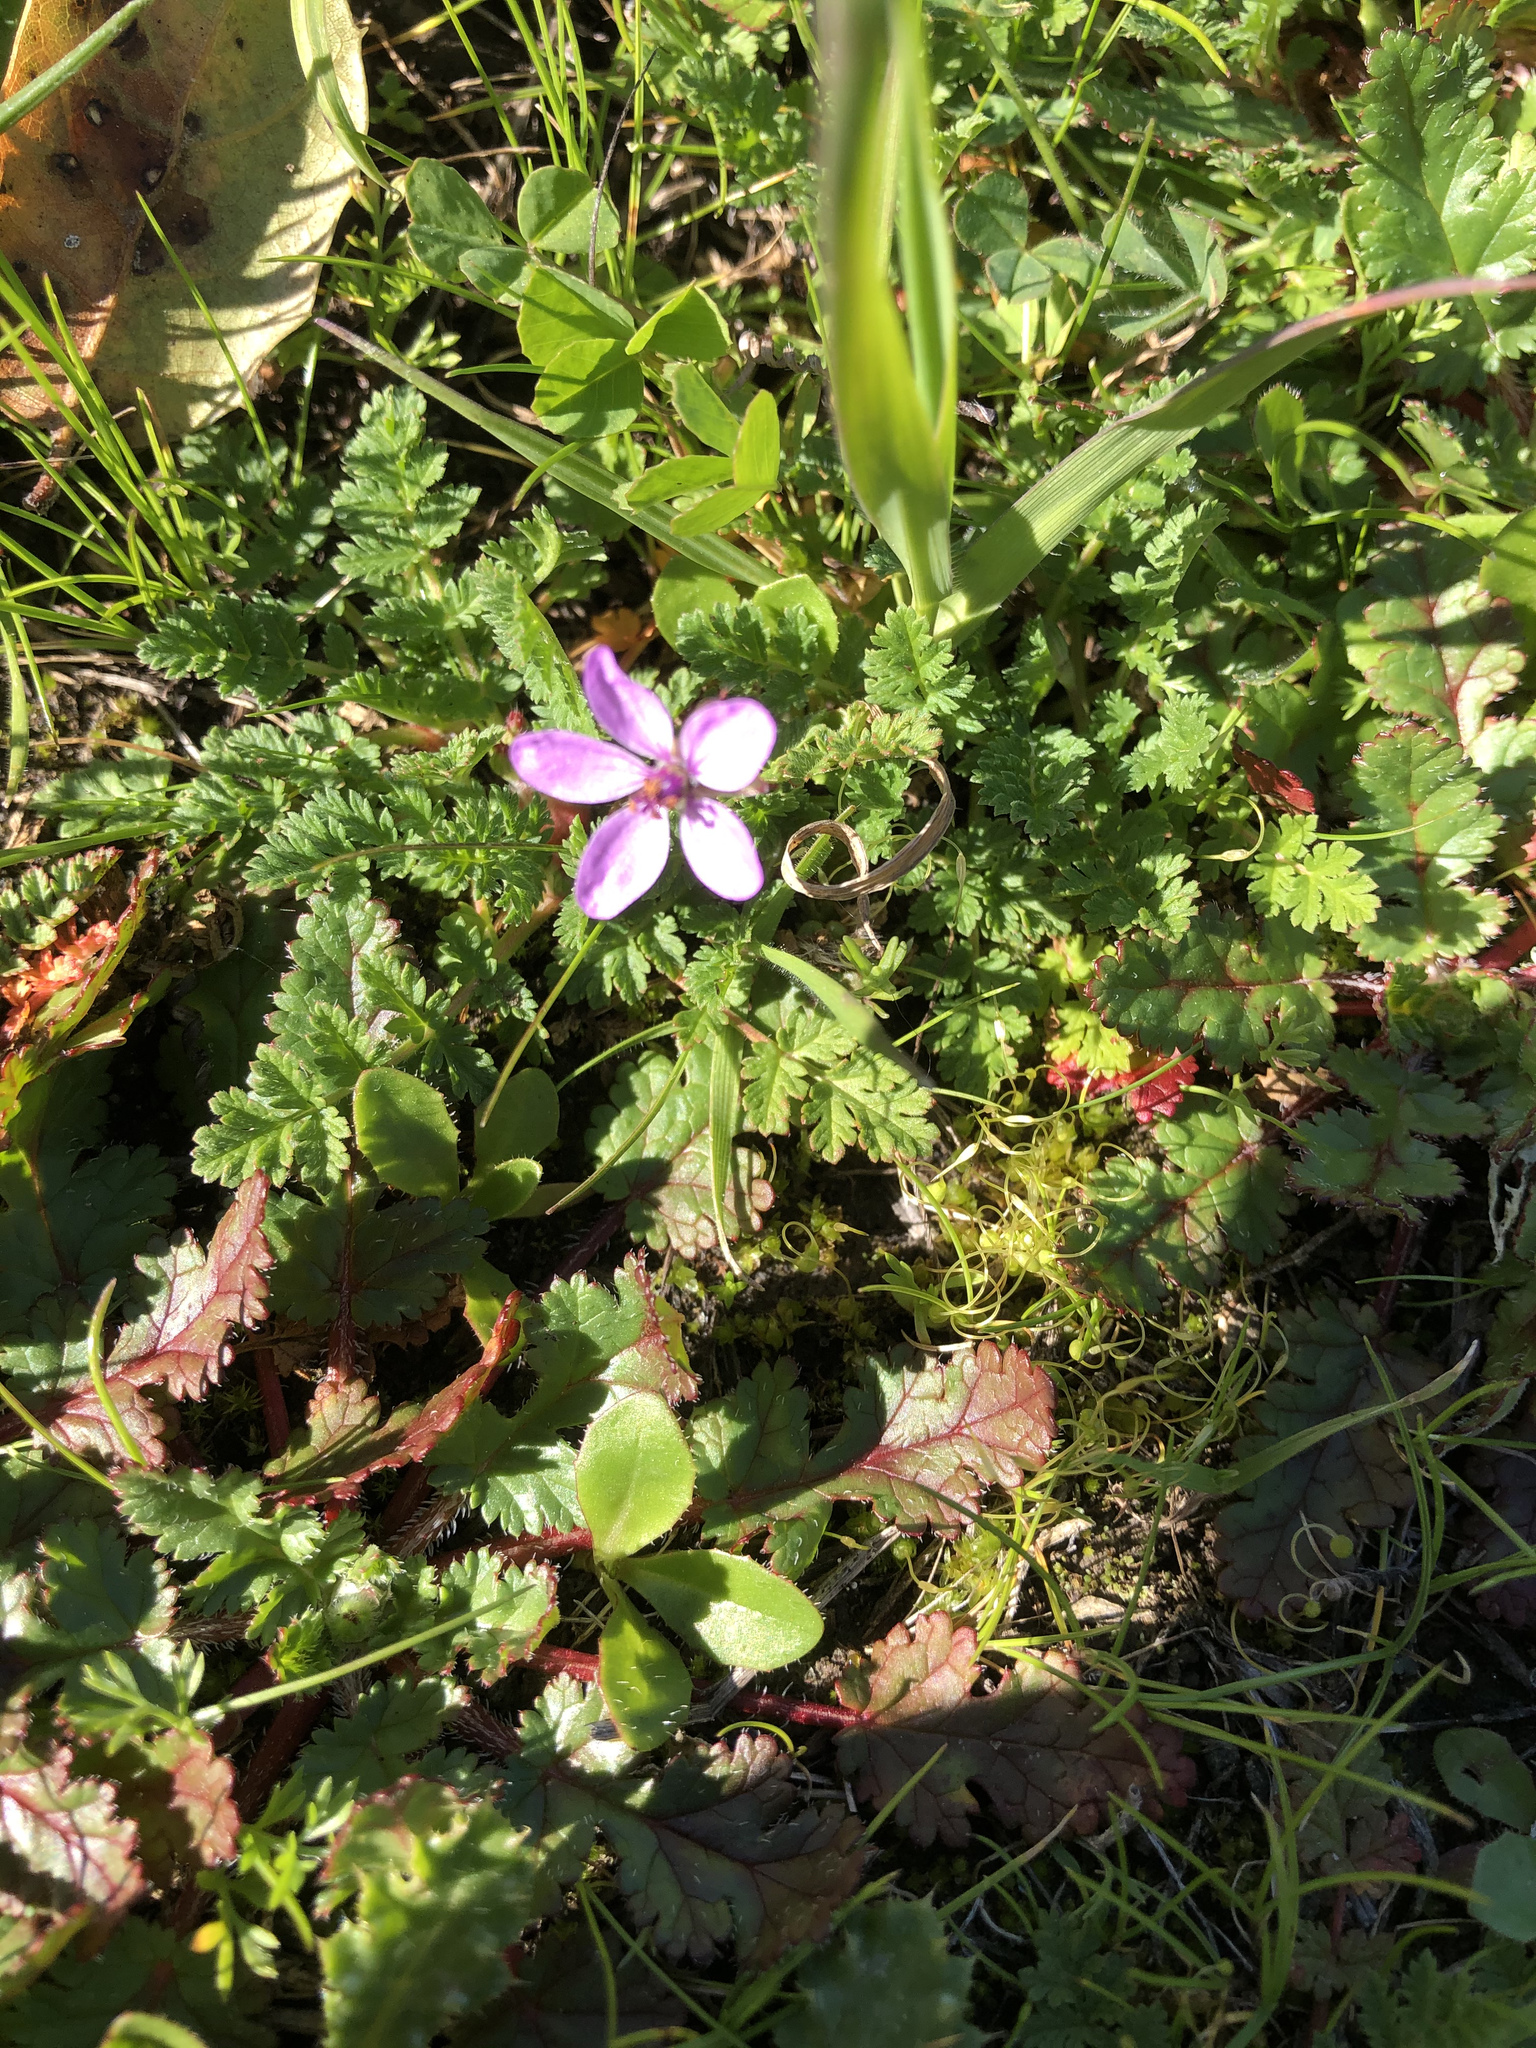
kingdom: Plantae
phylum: Tracheophyta
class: Magnoliopsida
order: Geraniales
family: Geraniaceae
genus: Erodium
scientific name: Erodium cicutarium
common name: Common stork's-bill
